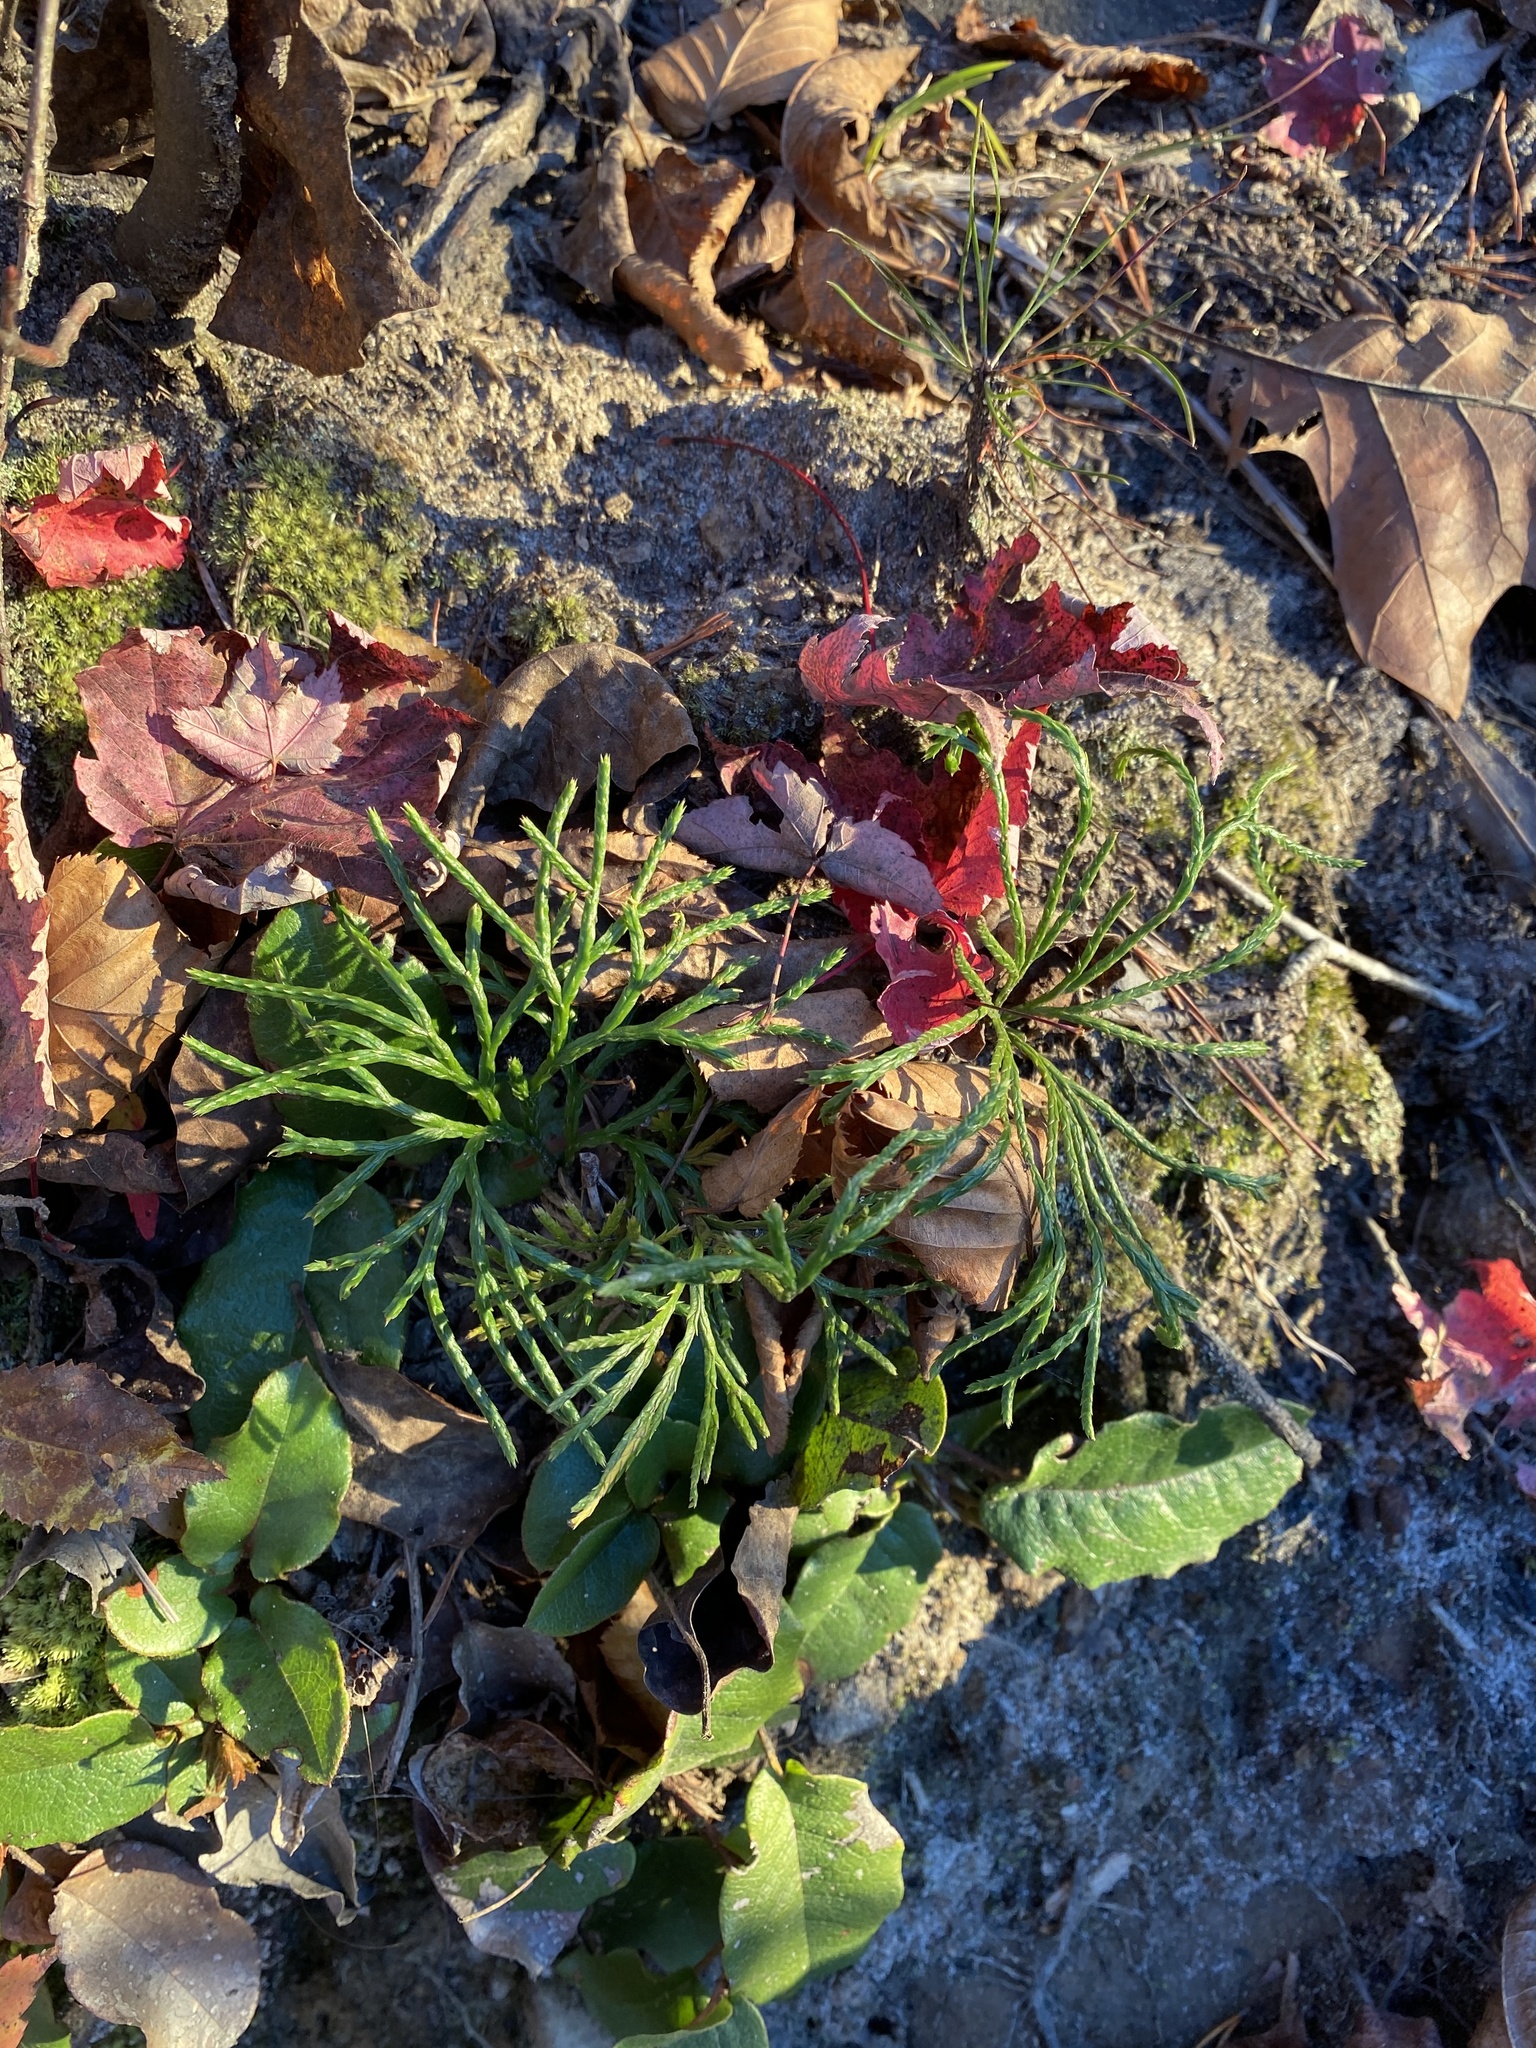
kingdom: Plantae
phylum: Tracheophyta
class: Lycopodiopsida
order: Lycopodiales
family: Lycopodiaceae
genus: Diphasiastrum
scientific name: Diphasiastrum digitatum
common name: Southern running-pine
